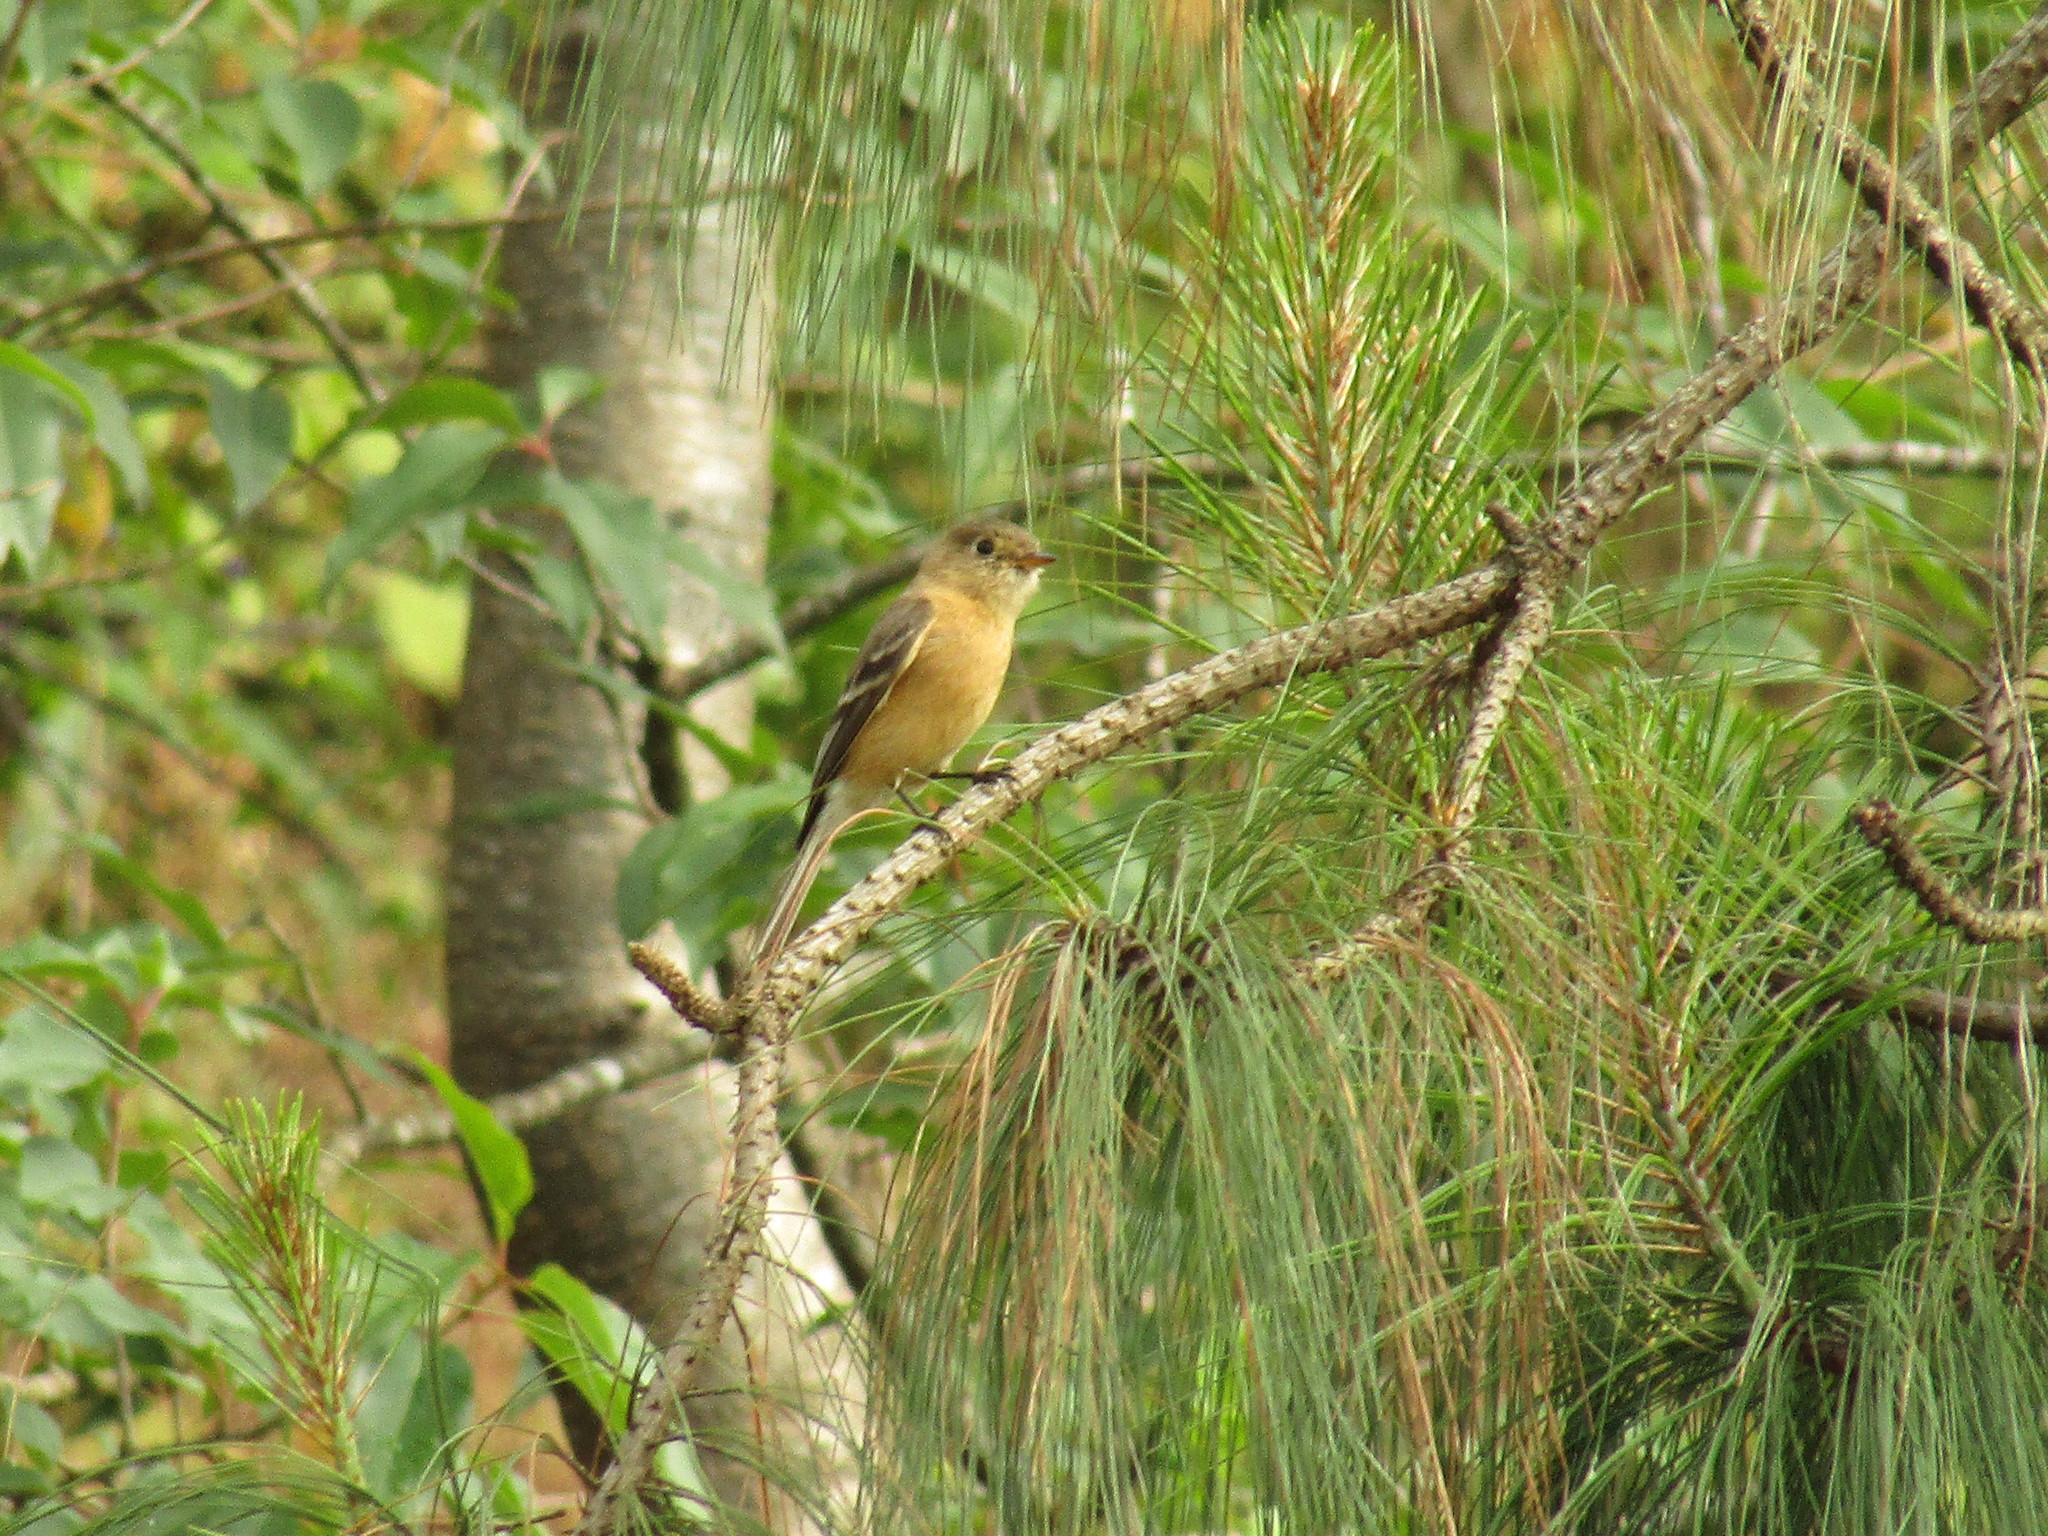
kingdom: Animalia
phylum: Chordata
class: Aves
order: Passeriformes
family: Tyrannidae
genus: Empidonax
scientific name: Empidonax fulvifrons
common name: Buff-breasted flycatcher
